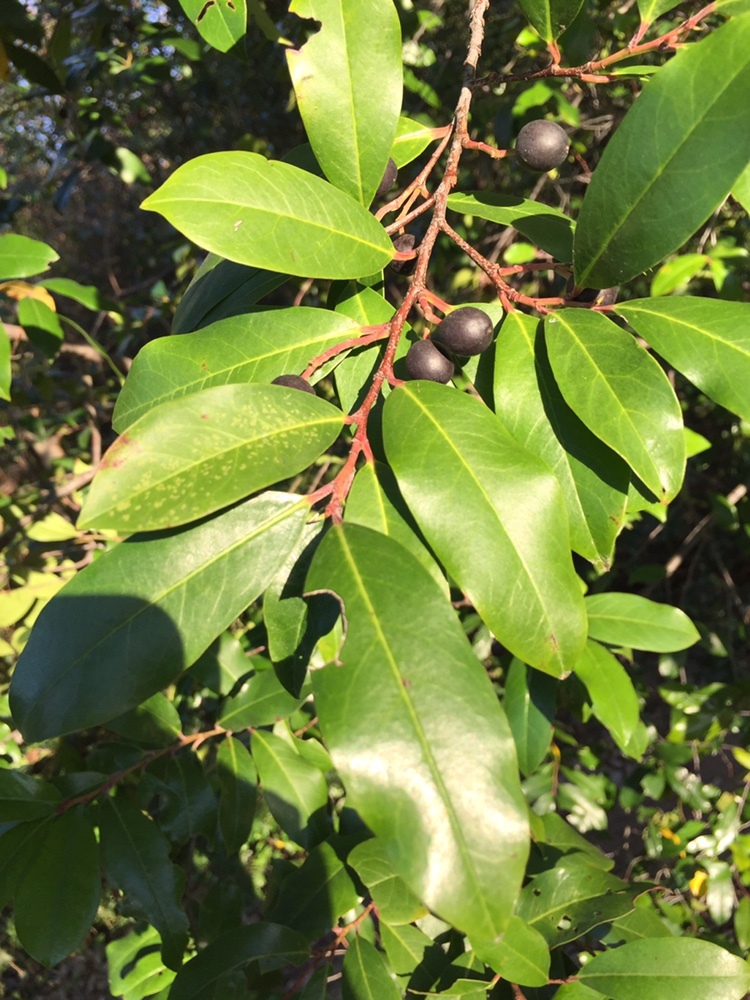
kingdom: Plantae
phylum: Tracheophyta
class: Magnoliopsida
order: Rosales
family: Rosaceae
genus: Prunus
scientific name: Prunus caroliniana
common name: Carolina laurel cherry
